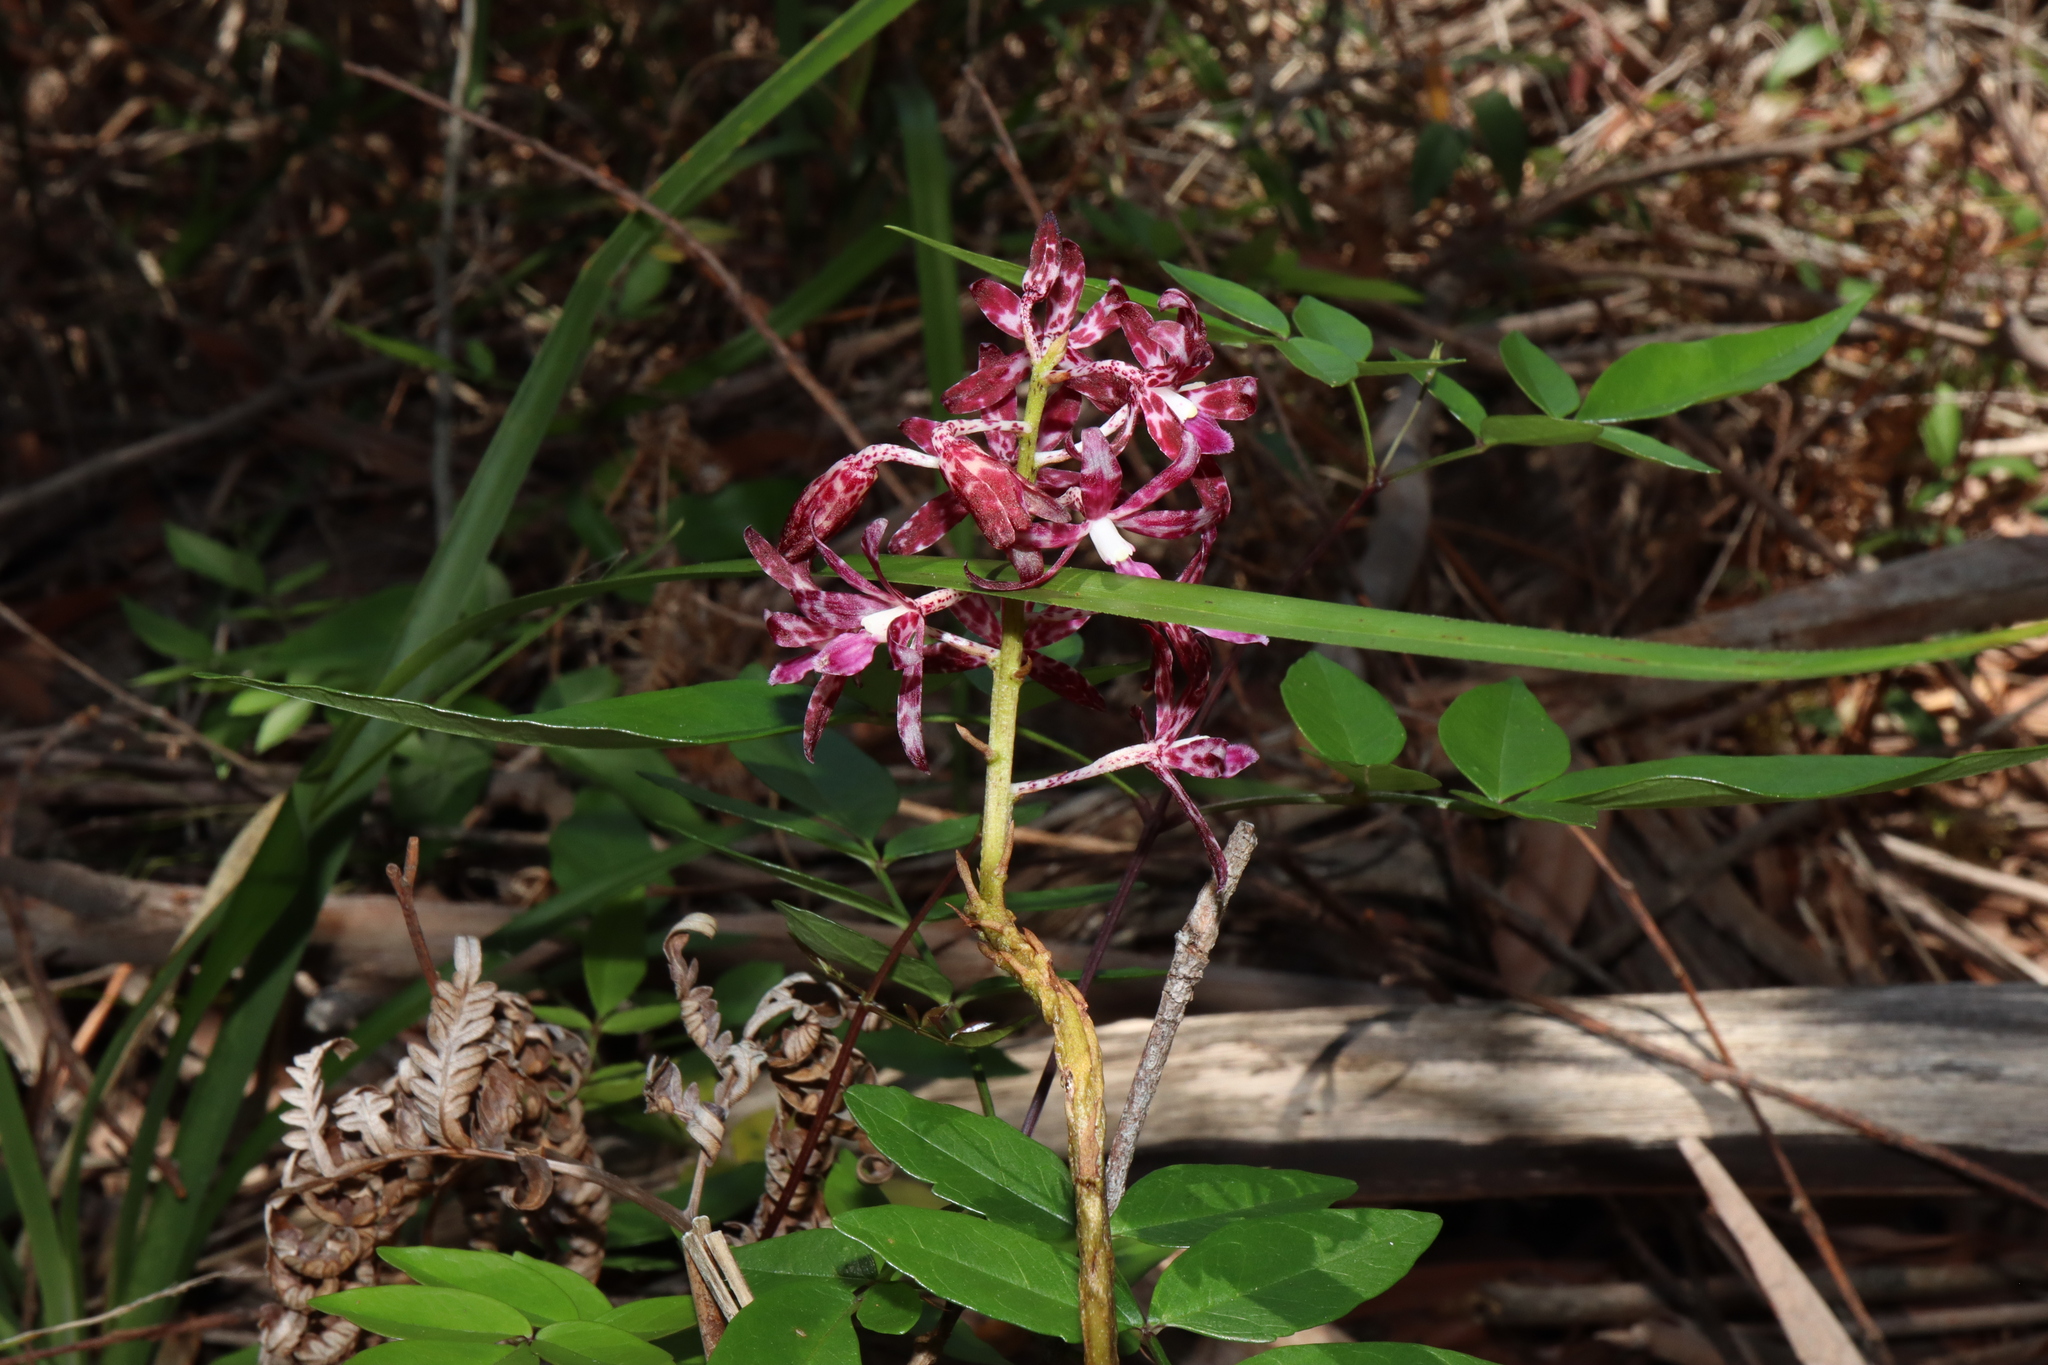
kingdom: Plantae
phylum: Tracheophyta
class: Liliopsida
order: Asparagales
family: Orchidaceae
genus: Dipodium
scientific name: Dipodium variegatum
